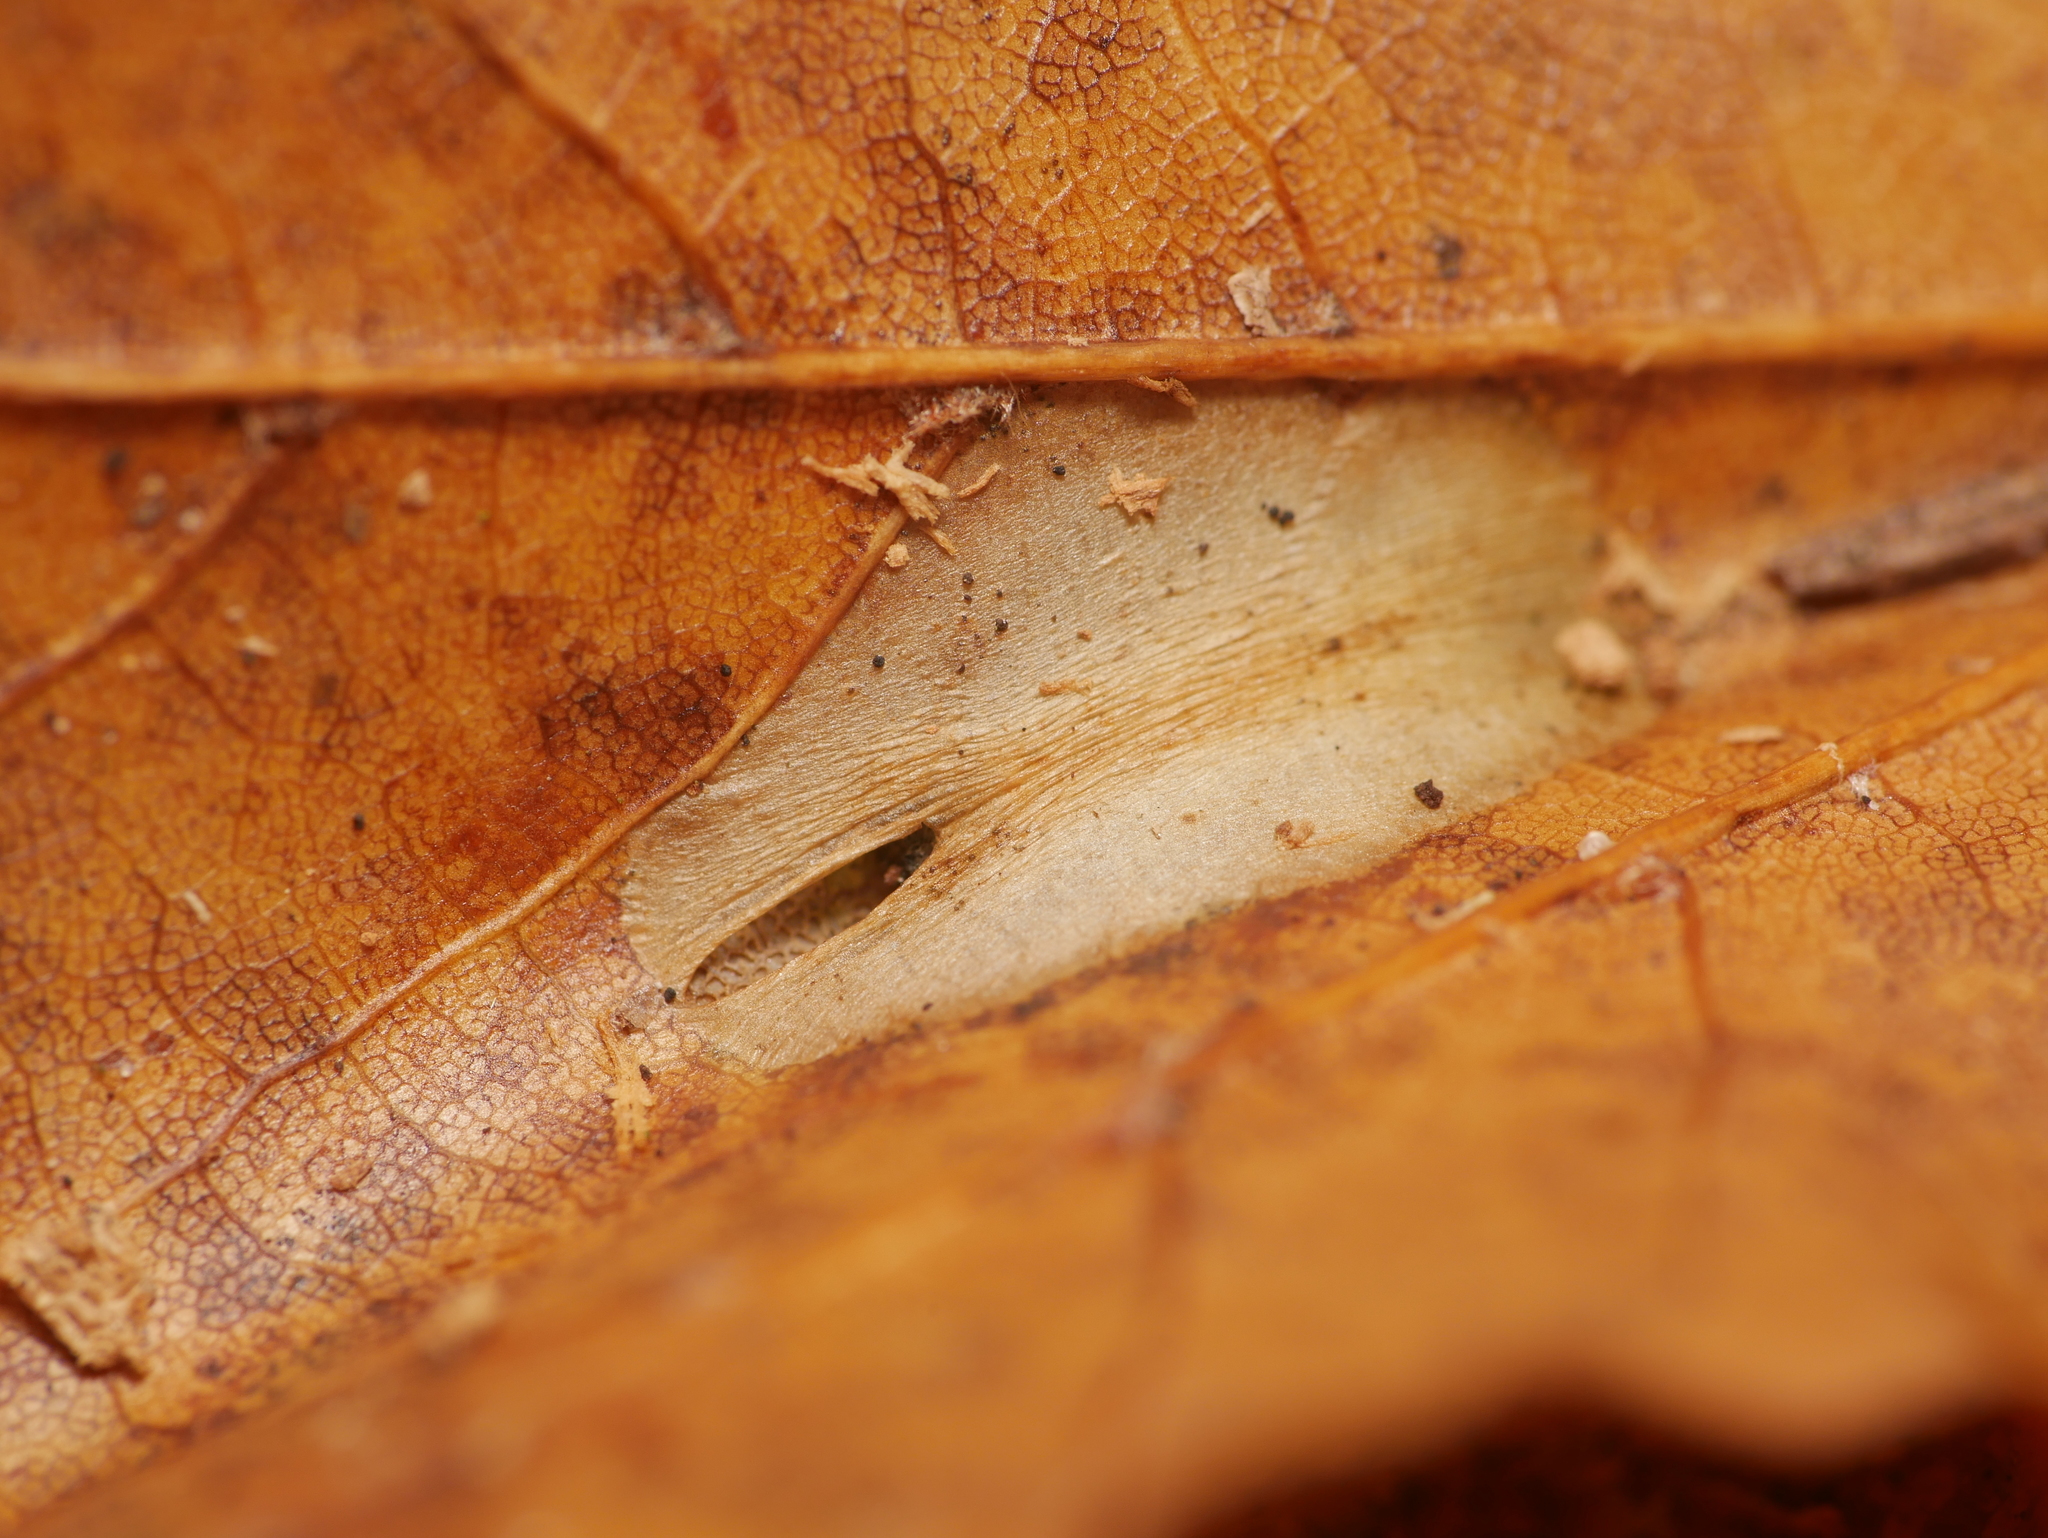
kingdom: Animalia
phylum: Arthropoda
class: Insecta
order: Lepidoptera
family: Gracillariidae
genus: Phyllonorycter
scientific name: Phyllonorycter joannisi
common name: White-bodied midget
